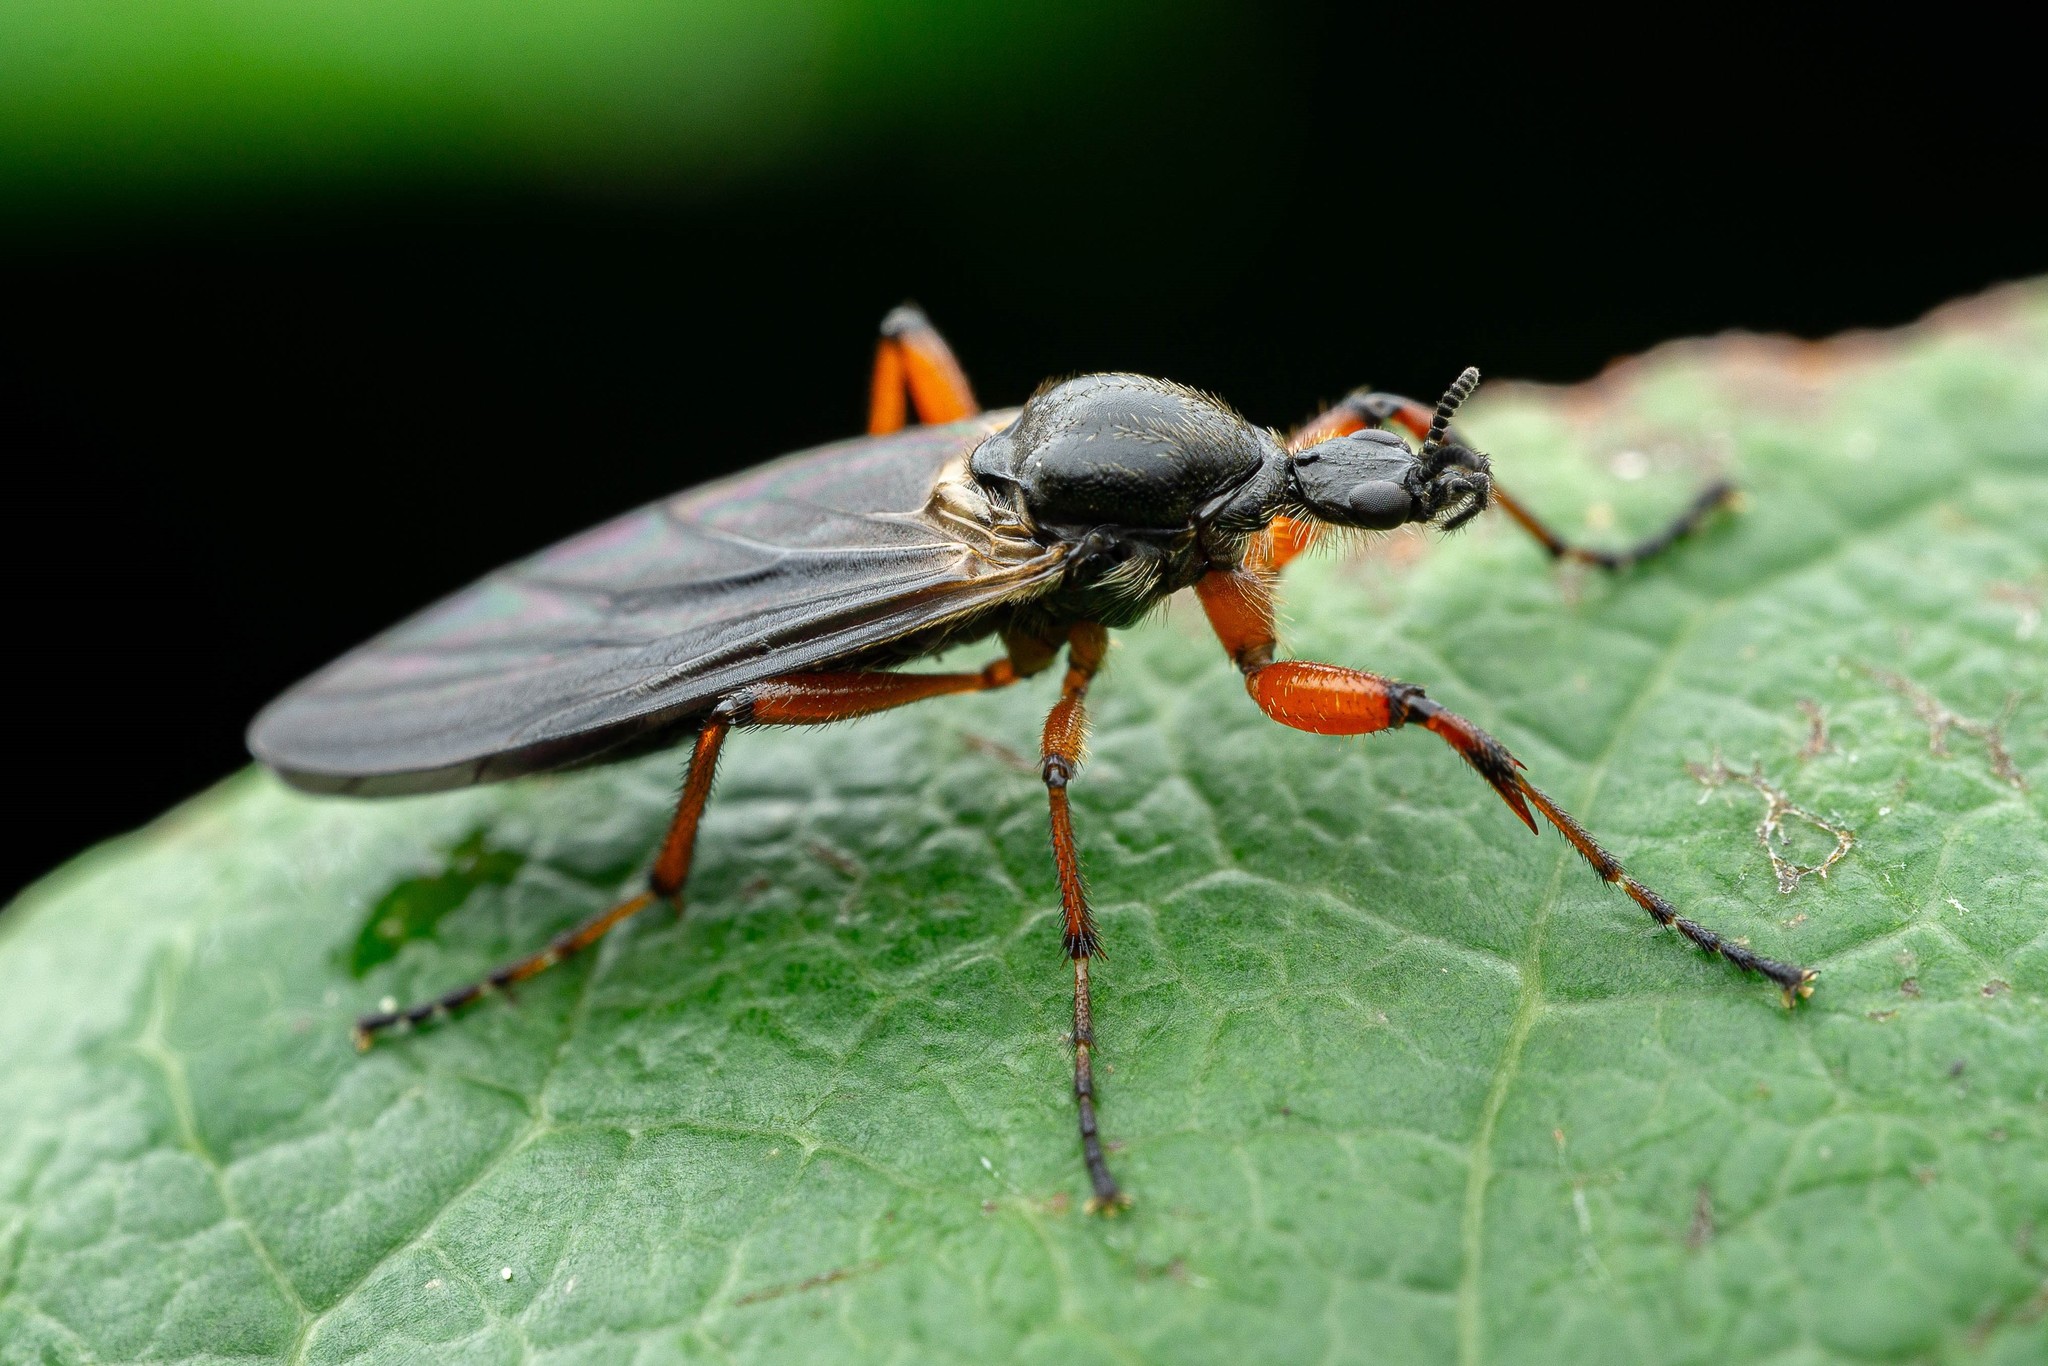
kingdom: Animalia
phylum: Arthropoda
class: Insecta
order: Diptera
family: Bibionidae
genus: Bibio
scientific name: Bibio
